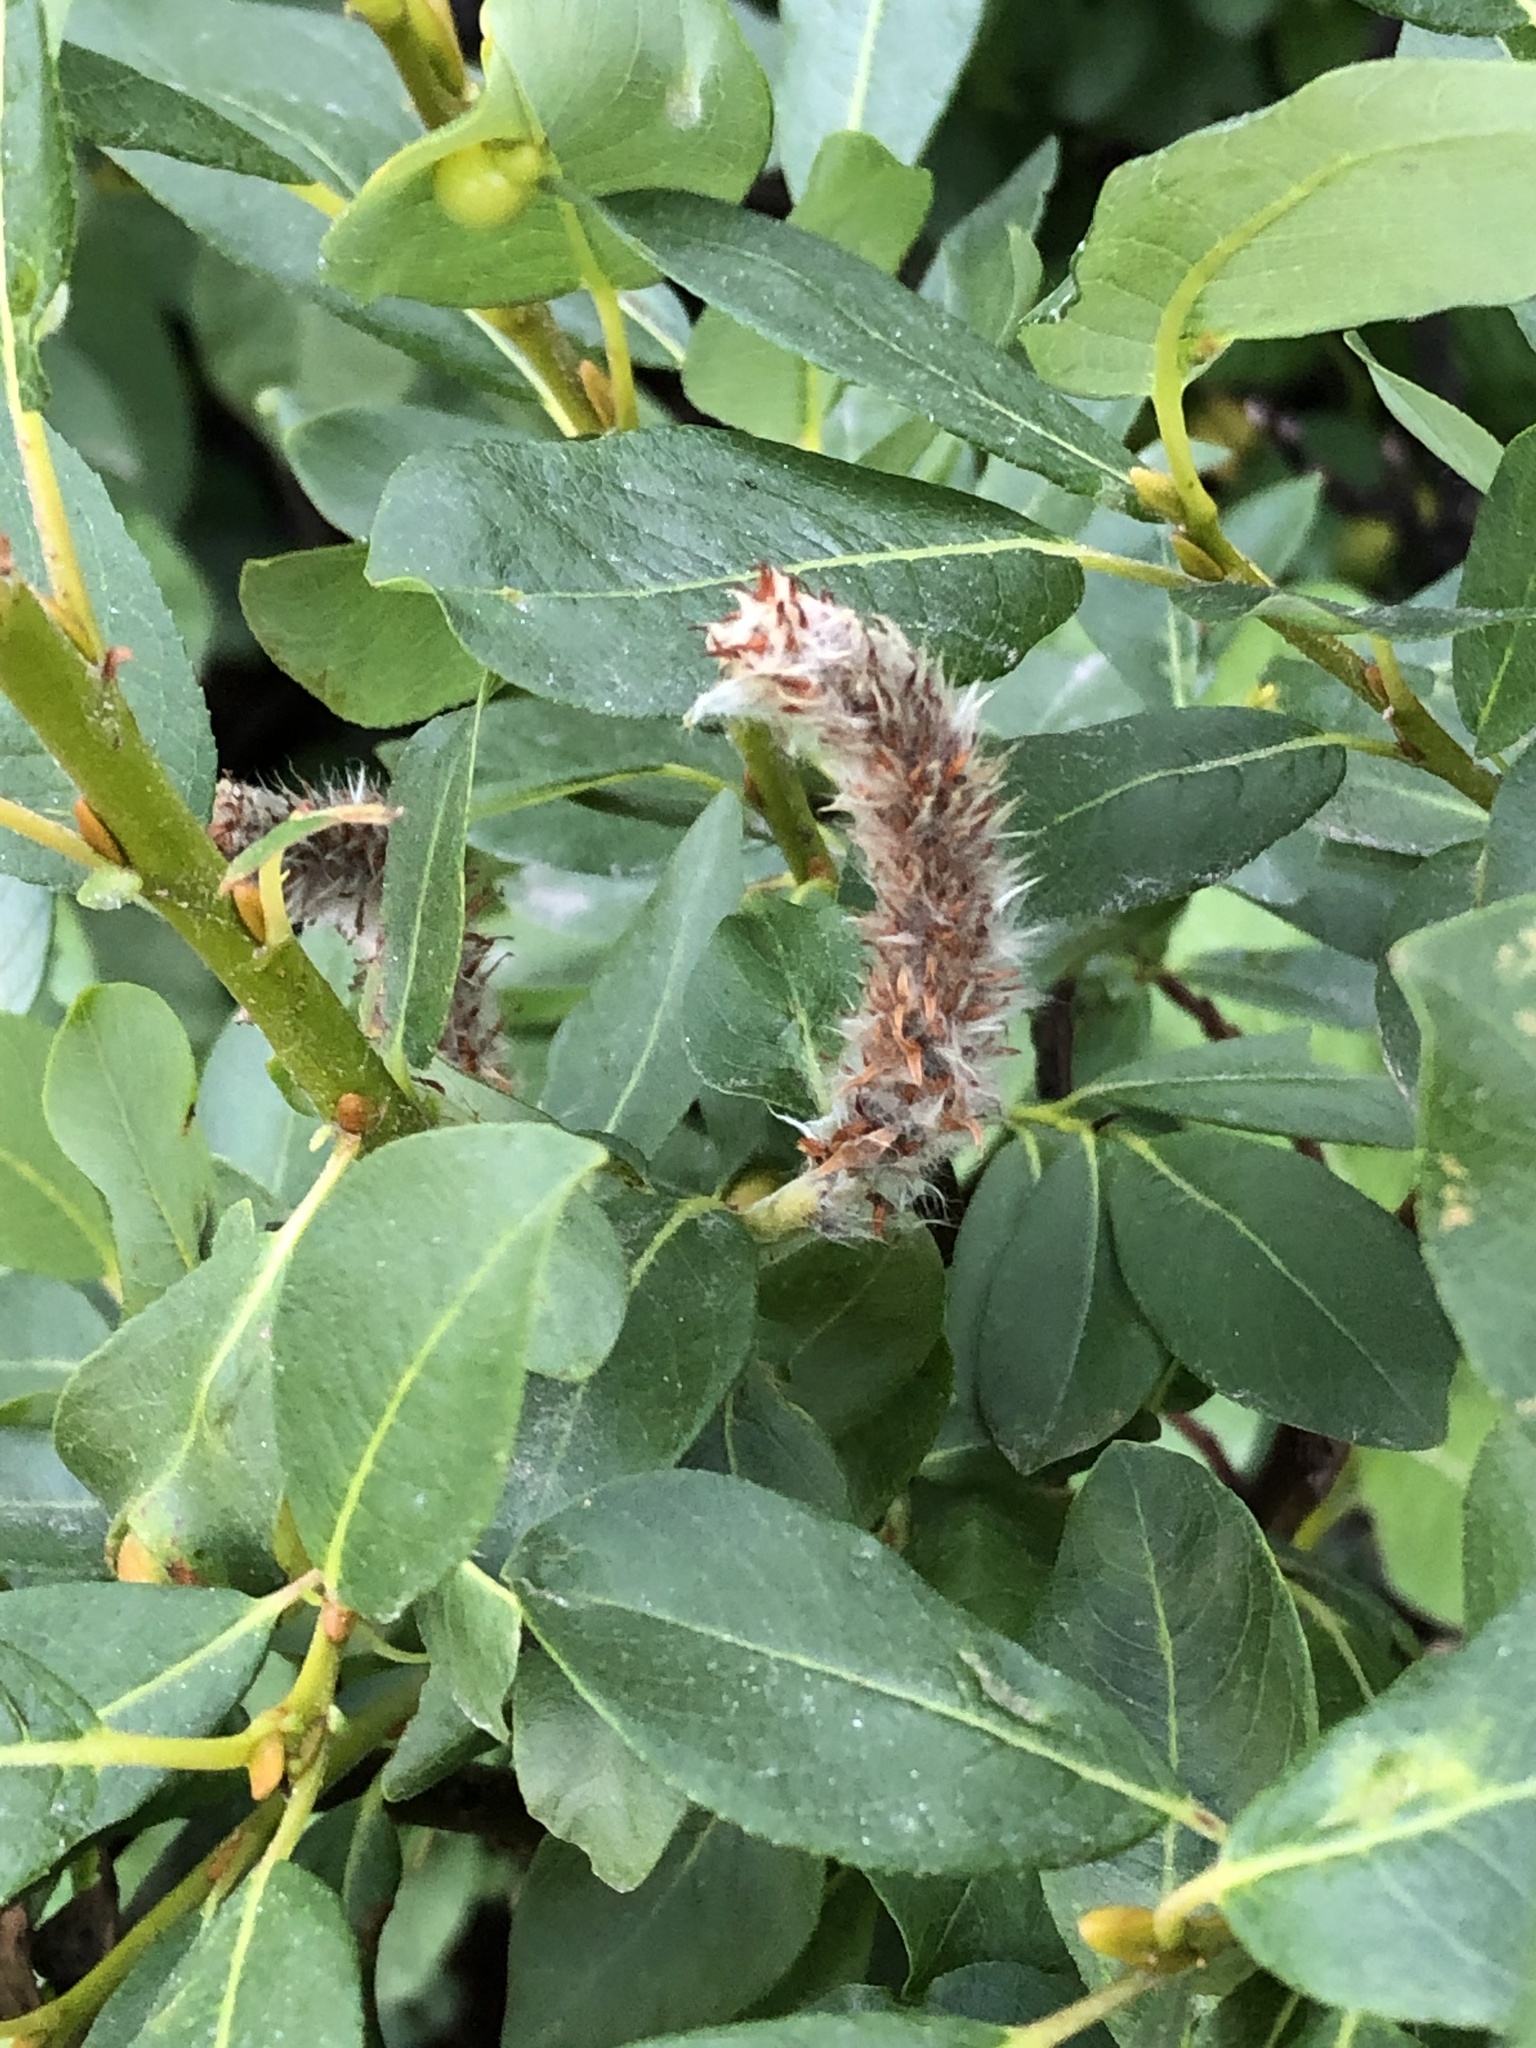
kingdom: Plantae
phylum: Tracheophyta
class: Magnoliopsida
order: Malpighiales
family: Salicaceae
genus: Salix
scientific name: Salix barclayi
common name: Mountain willow
